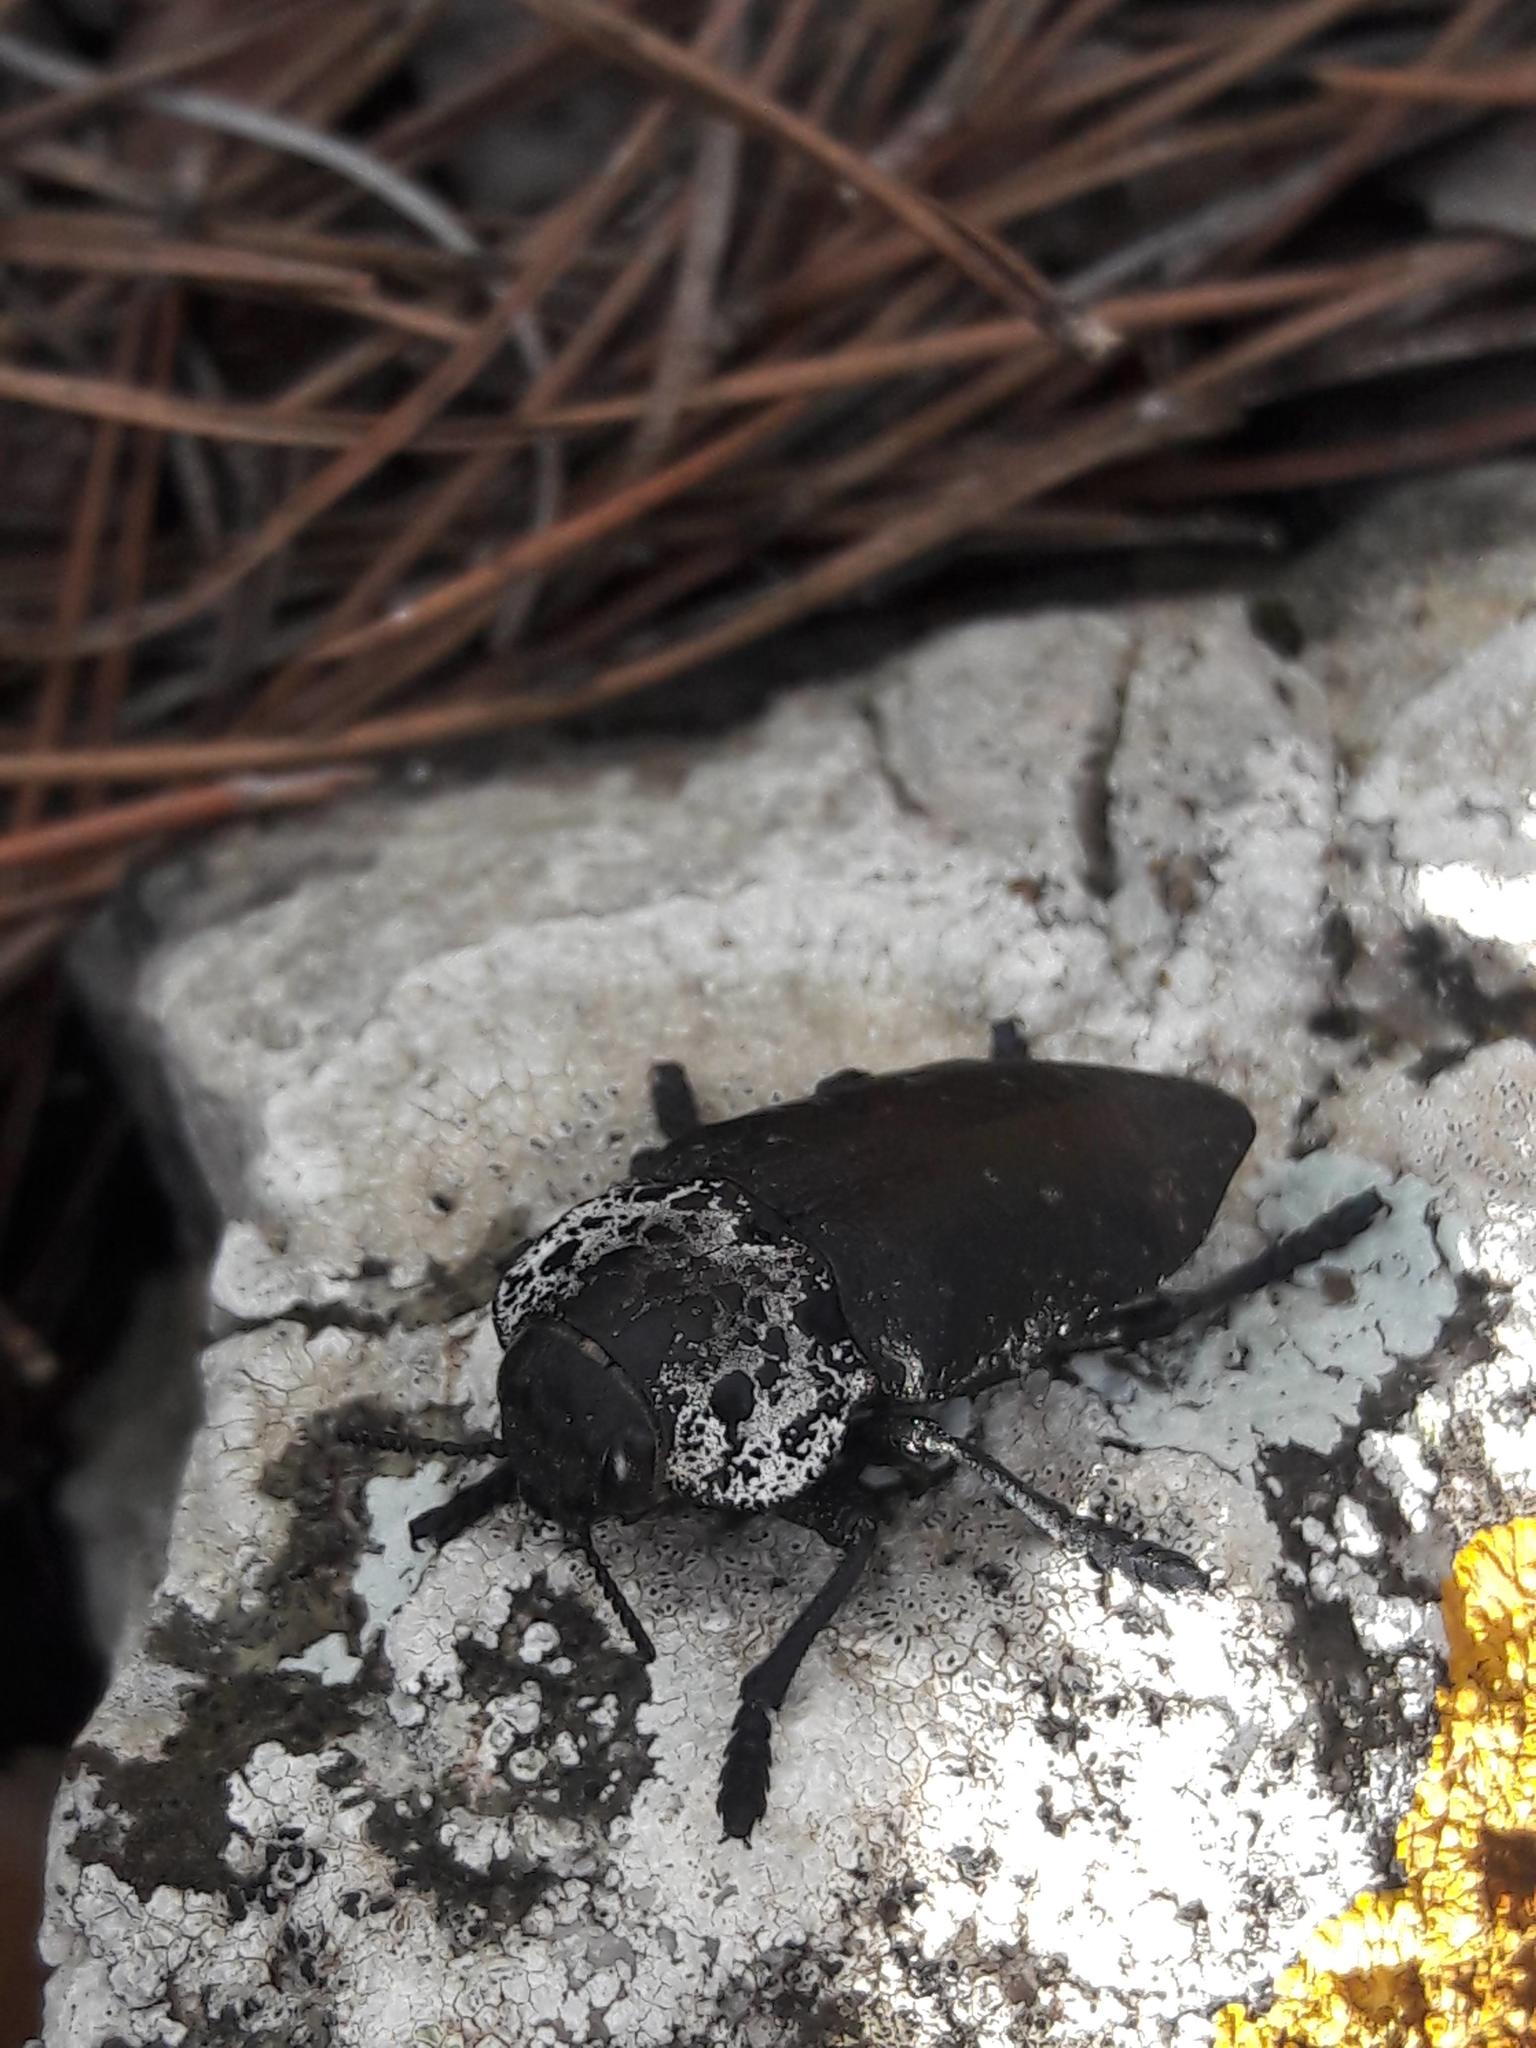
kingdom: Animalia
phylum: Arthropoda
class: Insecta
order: Coleoptera
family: Buprestidae
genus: Capnodis
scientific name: Capnodis tenebrionis
